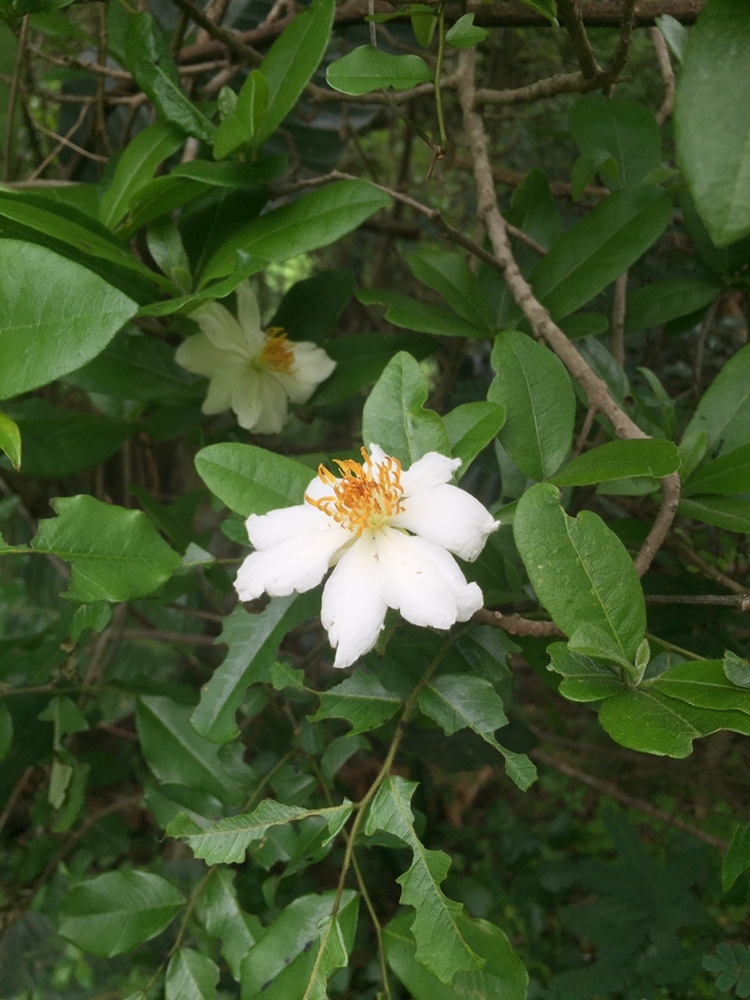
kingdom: Plantae
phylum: Tracheophyta
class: Magnoliopsida
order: Malpighiales
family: Achariaceae
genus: Xylotheca
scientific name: Xylotheca kraussiana
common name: African dog rose
